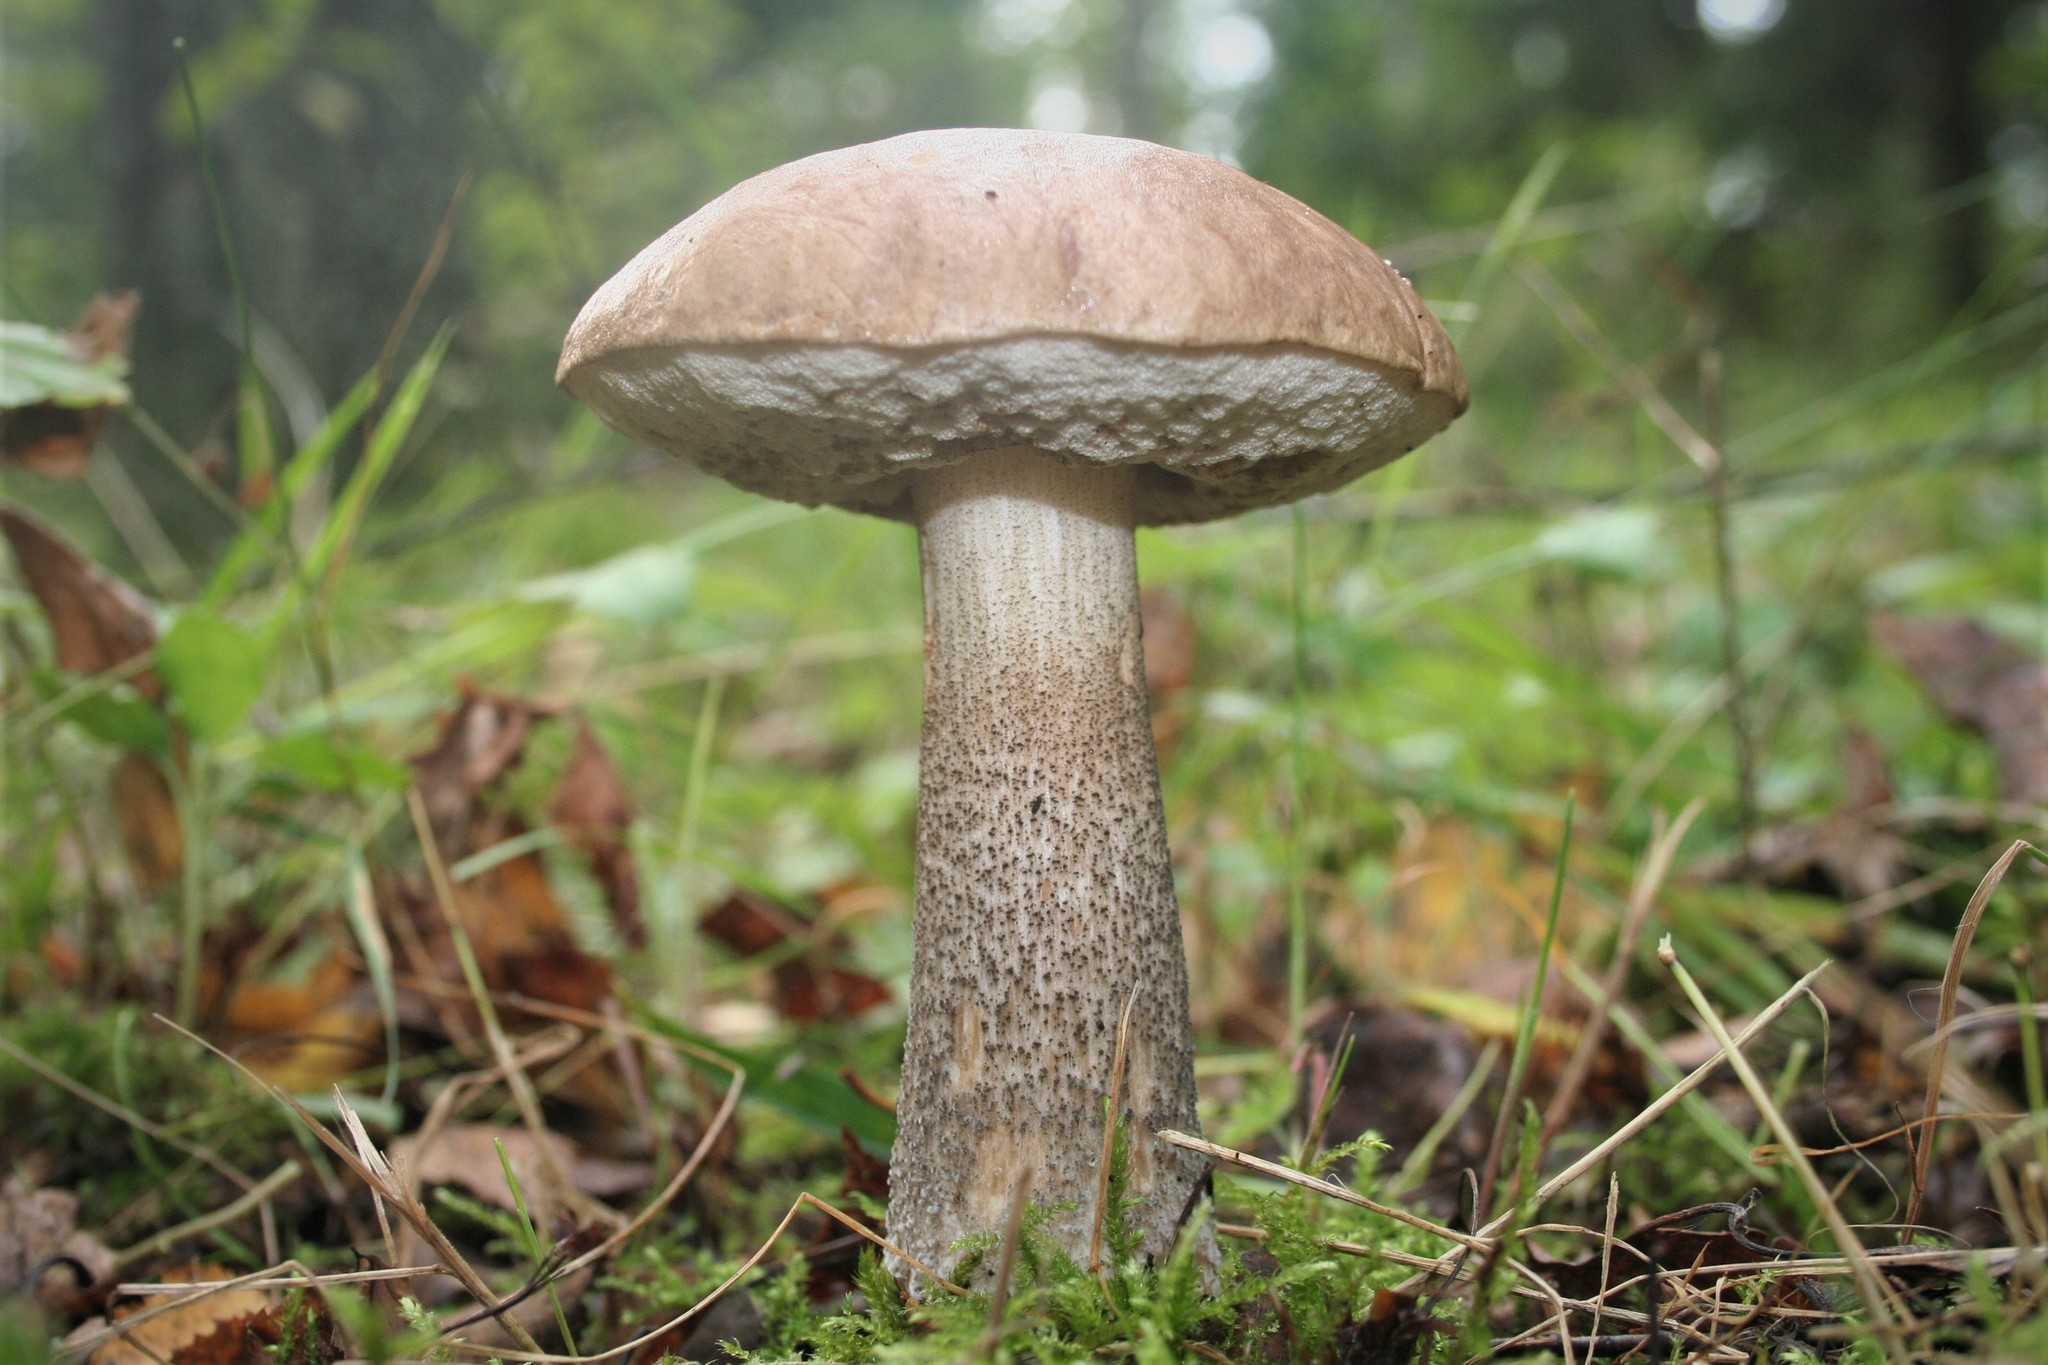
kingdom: Fungi
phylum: Basidiomycota
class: Agaricomycetes
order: Boletales
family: Boletaceae
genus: Leccinum
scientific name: Leccinum scabrum
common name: Blushing bolete
